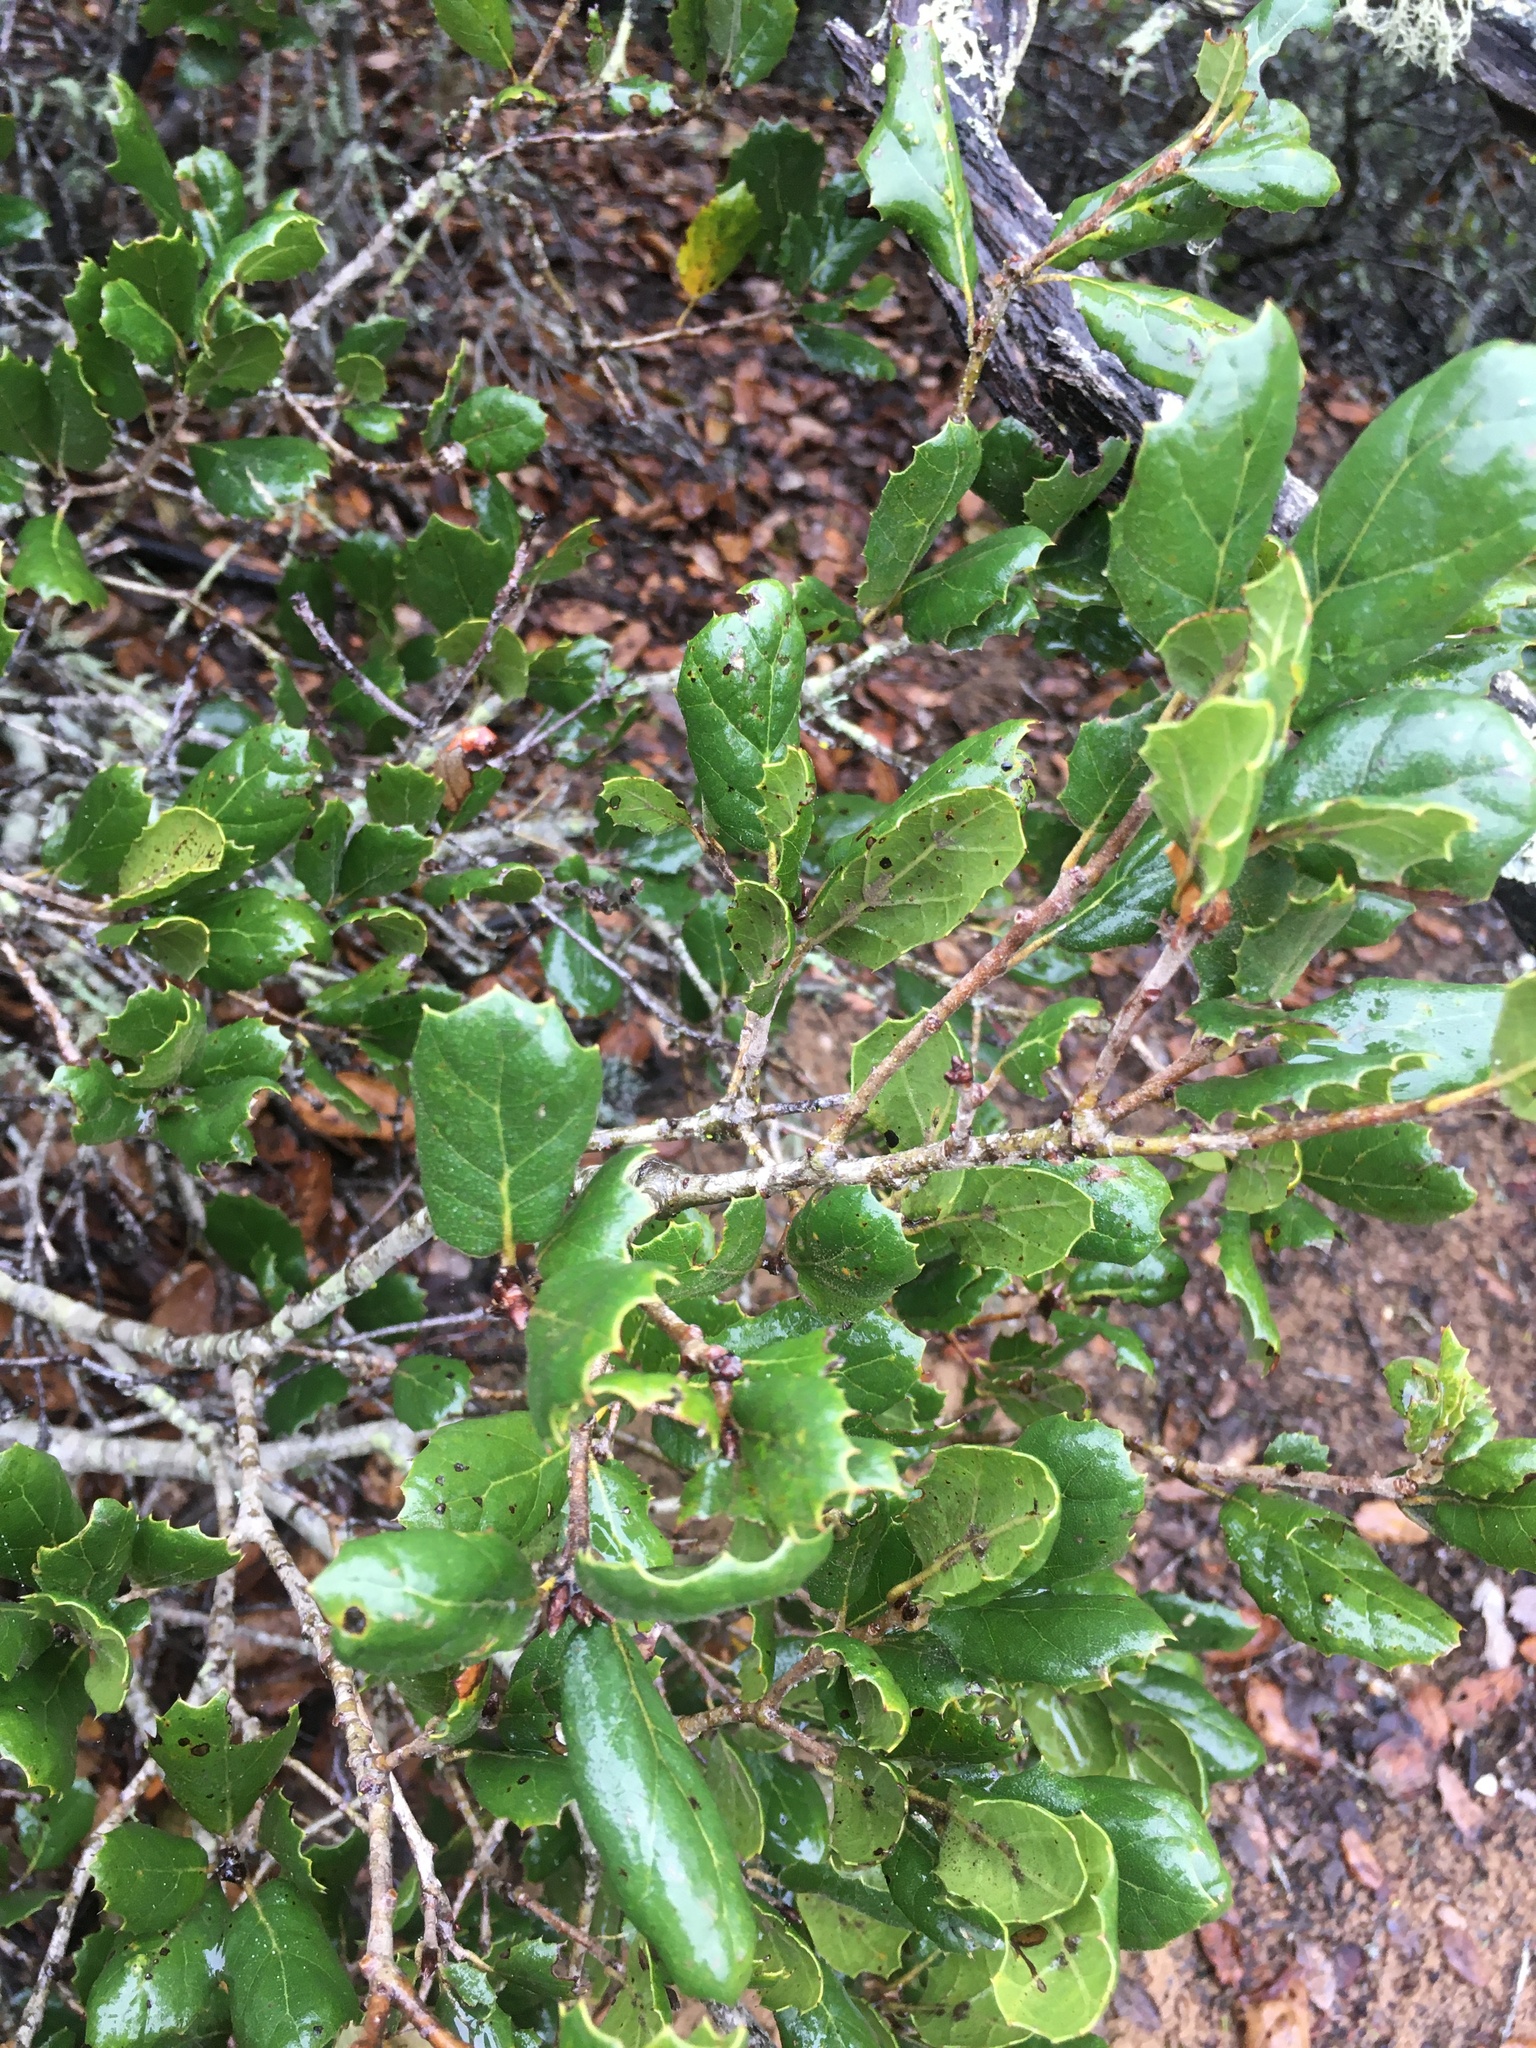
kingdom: Plantae
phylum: Tracheophyta
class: Magnoliopsida
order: Fagales
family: Fagaceae
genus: Quercus
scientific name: Quercus agrifolia
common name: California live oak
